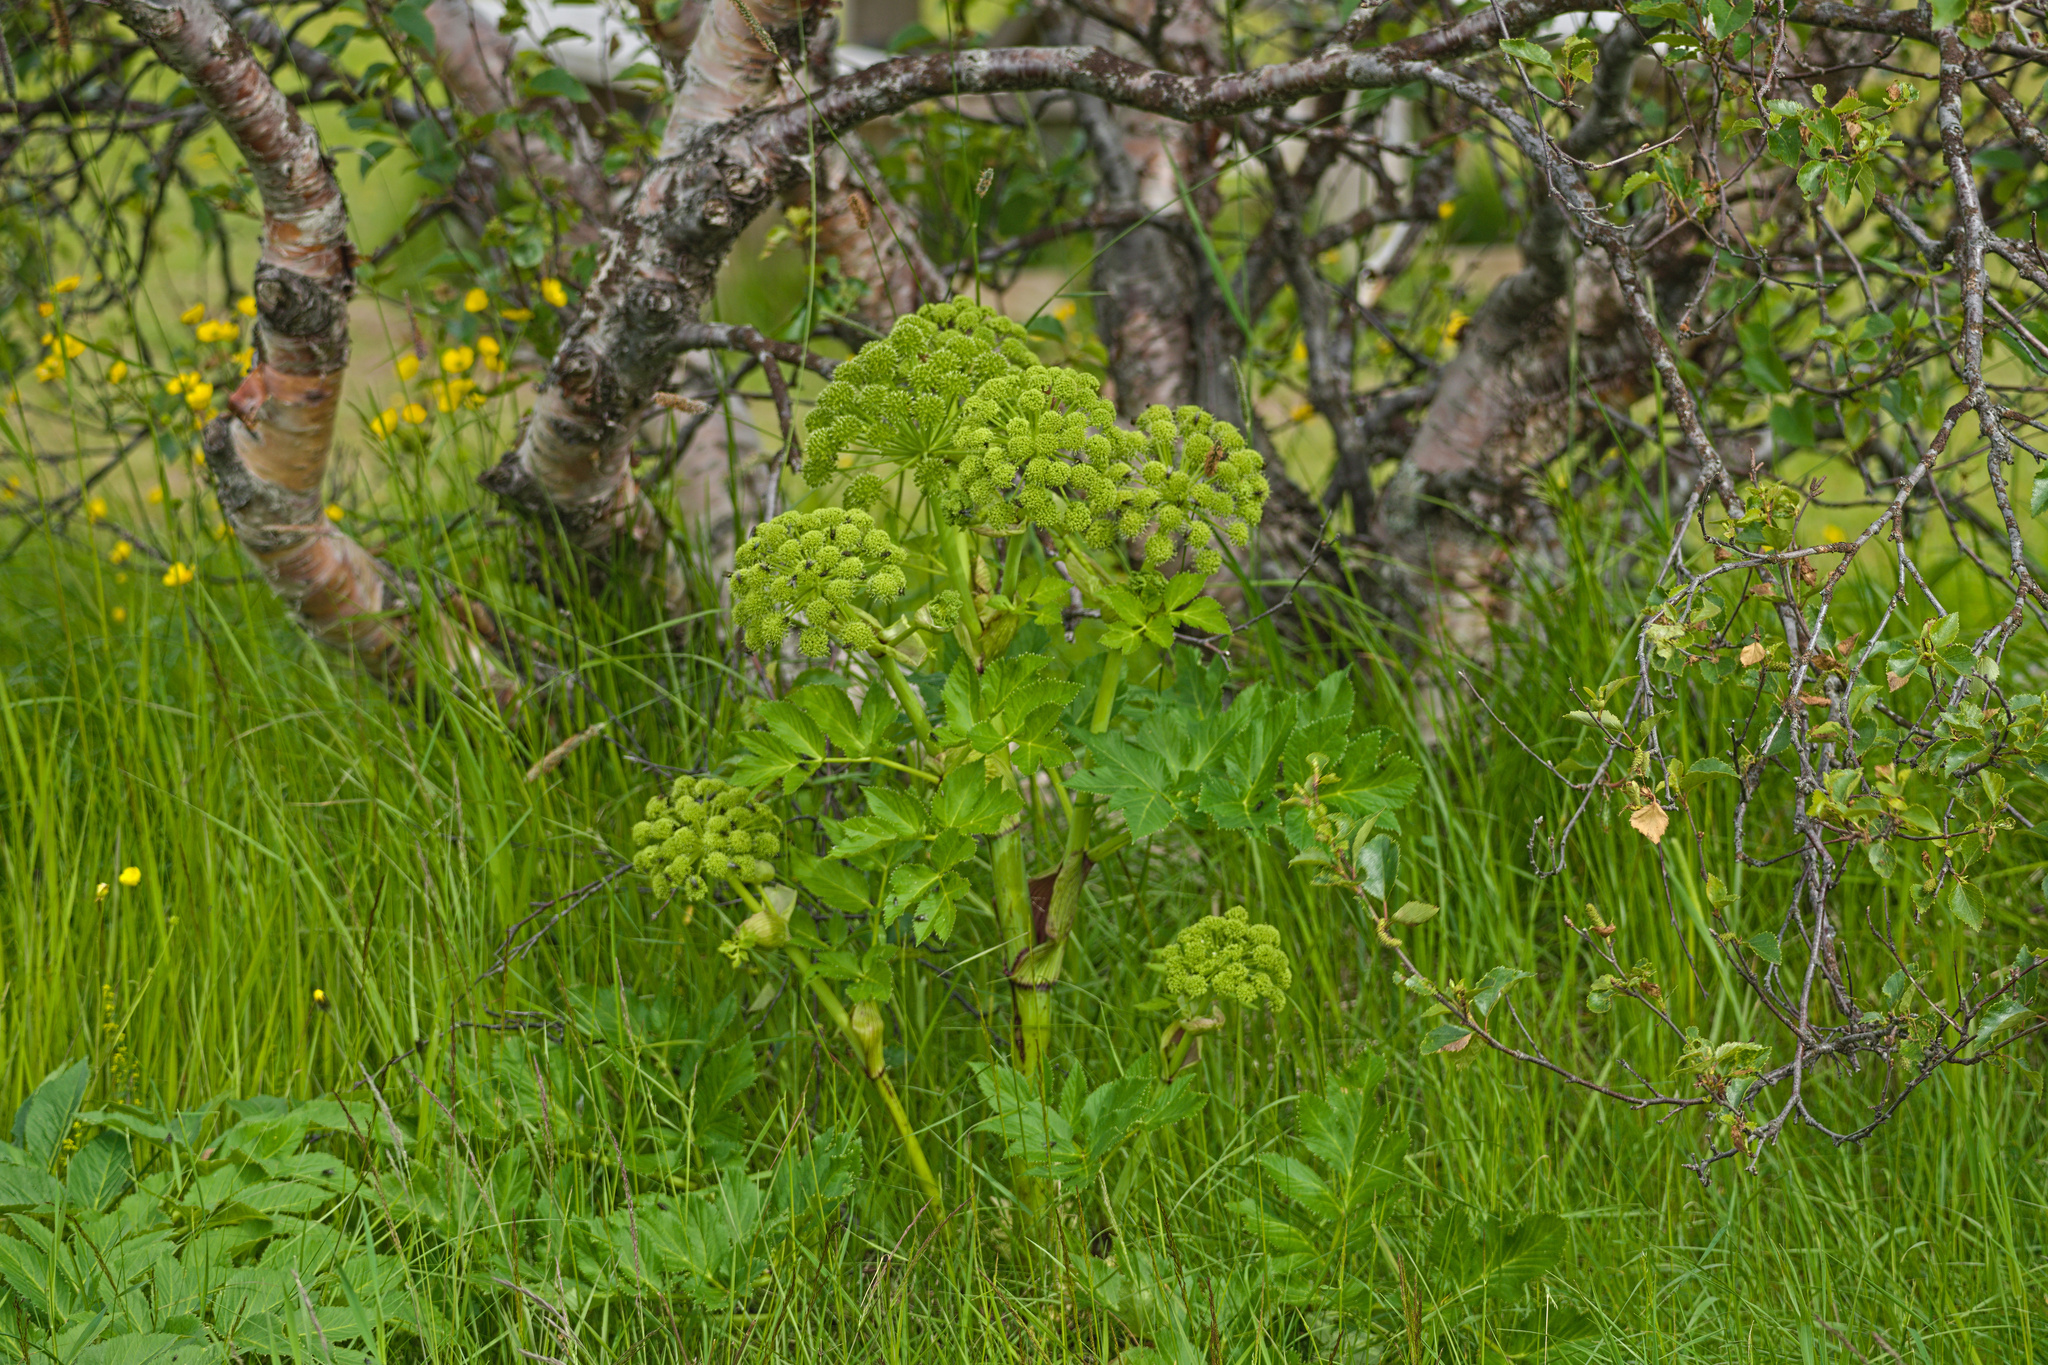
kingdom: Plantae
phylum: Tracheophyta
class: Magnoliopsida
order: Apiales
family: Apiaceae
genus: Angelica
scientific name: Angelica archangelica
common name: Garden angelica
